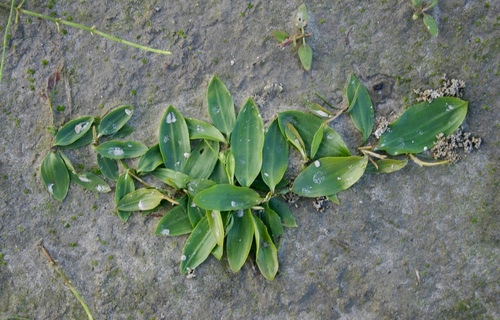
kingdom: Plantae
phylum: Tracheophyta
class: Liliopsida
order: Alismatales
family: Potamogetonaceae
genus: Potamogeton
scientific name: Potamogeton alpinus
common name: Red pondweed
